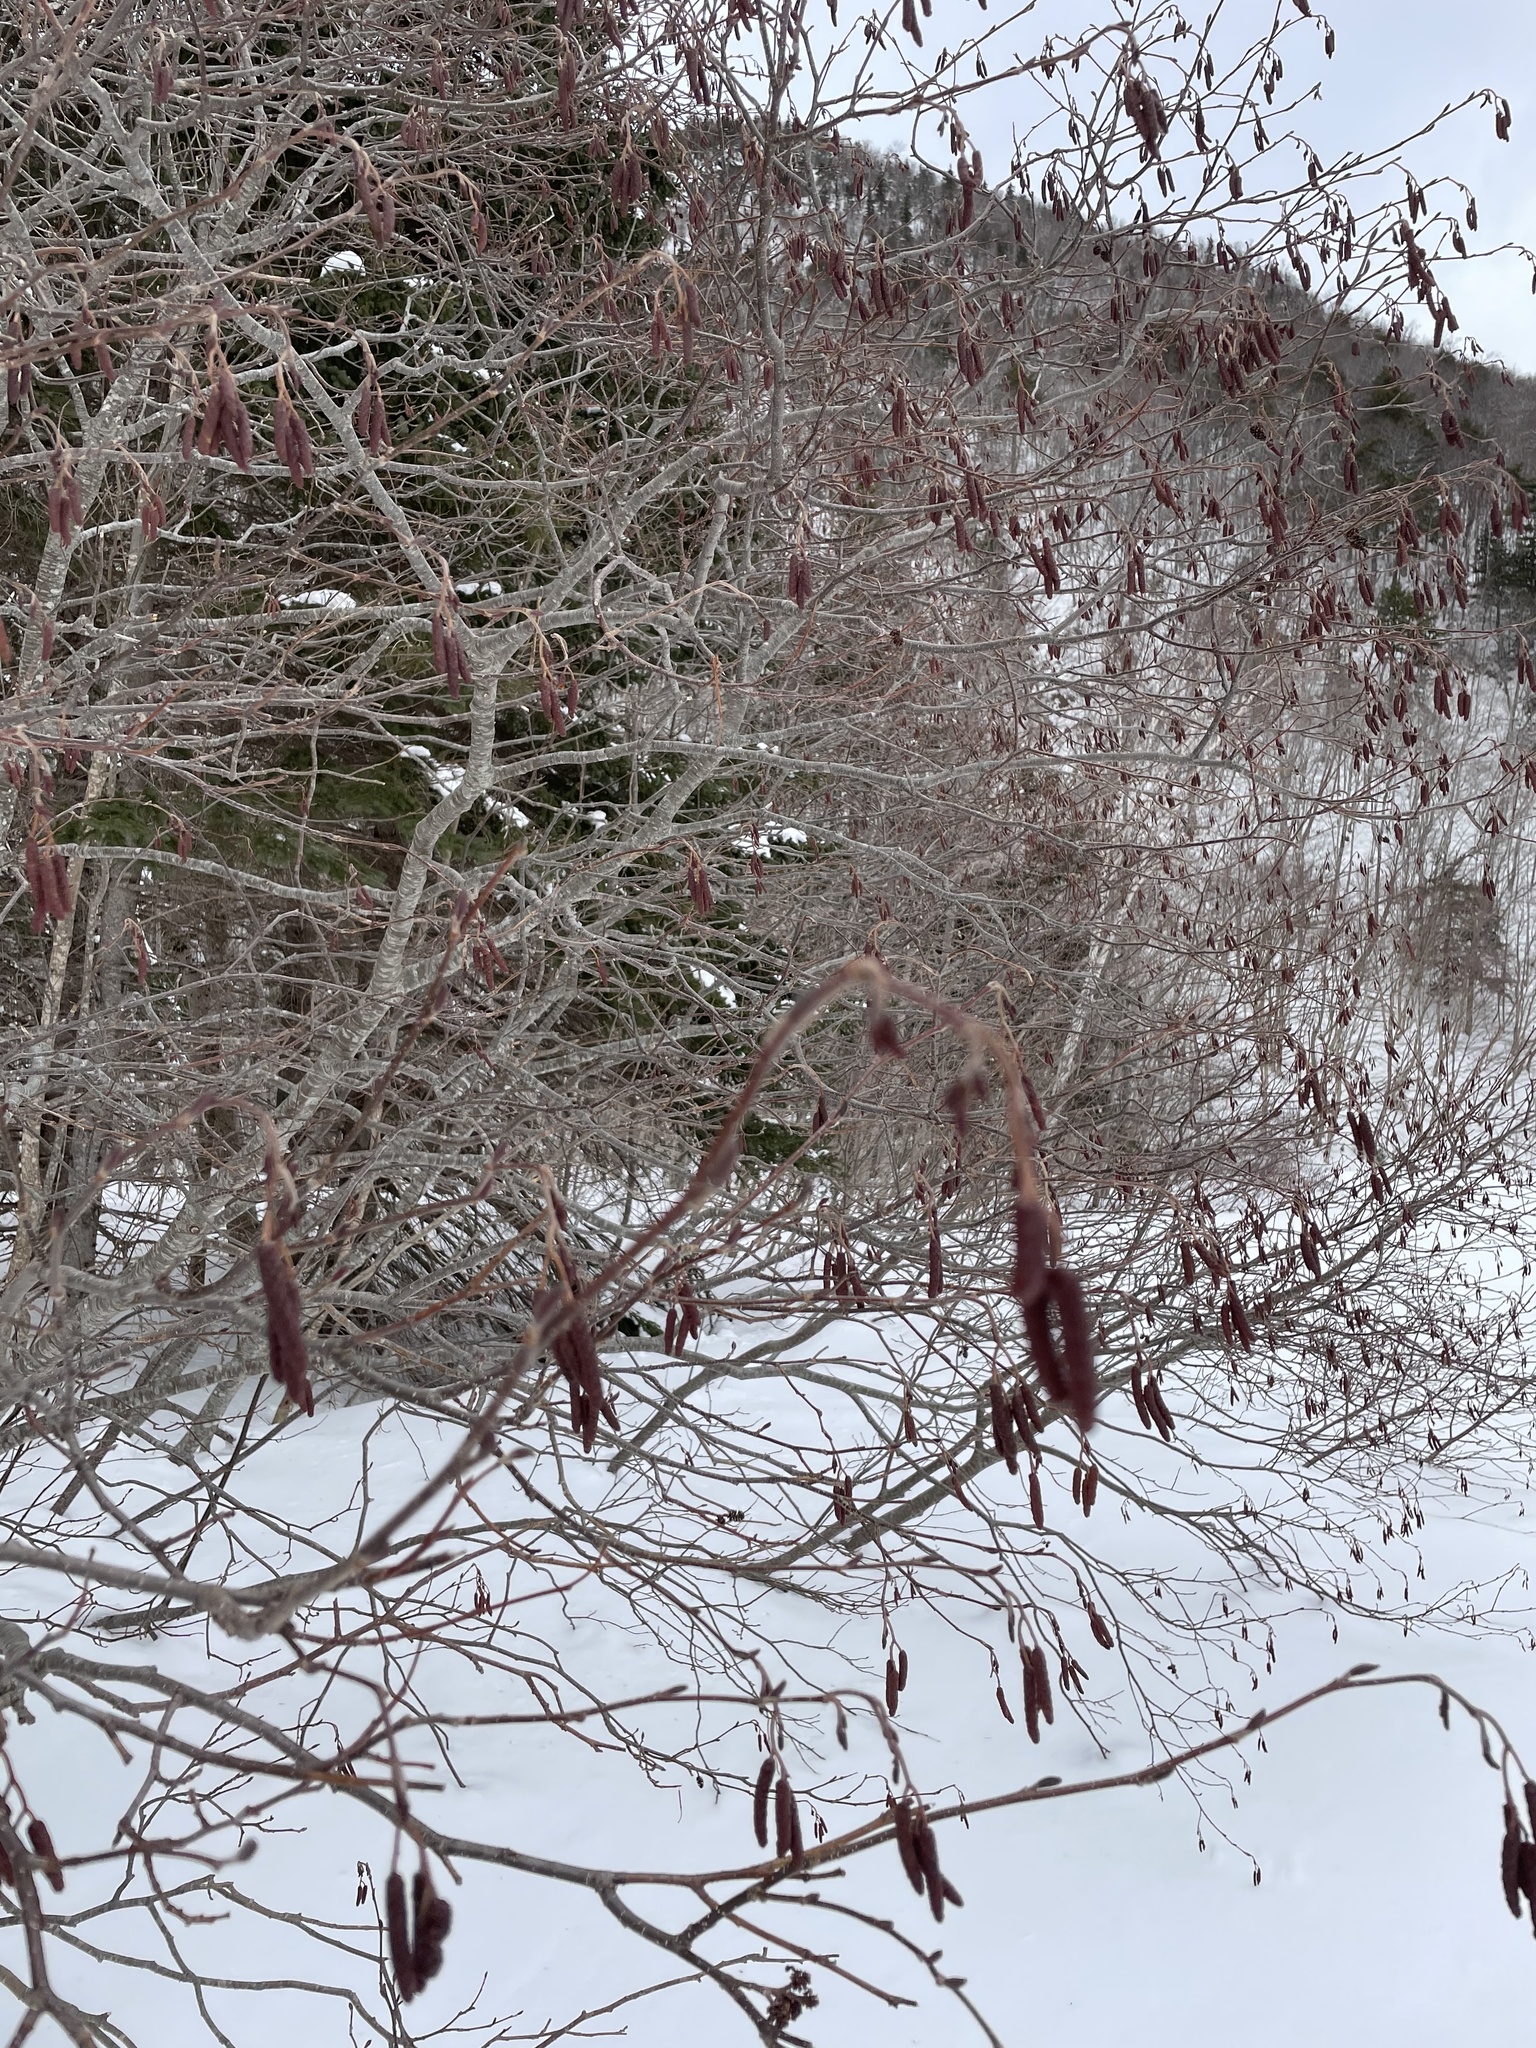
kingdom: Plantae
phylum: Tracheophyta
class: Magnoliopsida
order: Fagales
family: Betulaceae
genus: Alnus
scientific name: Alnus incana
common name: Grey alder
